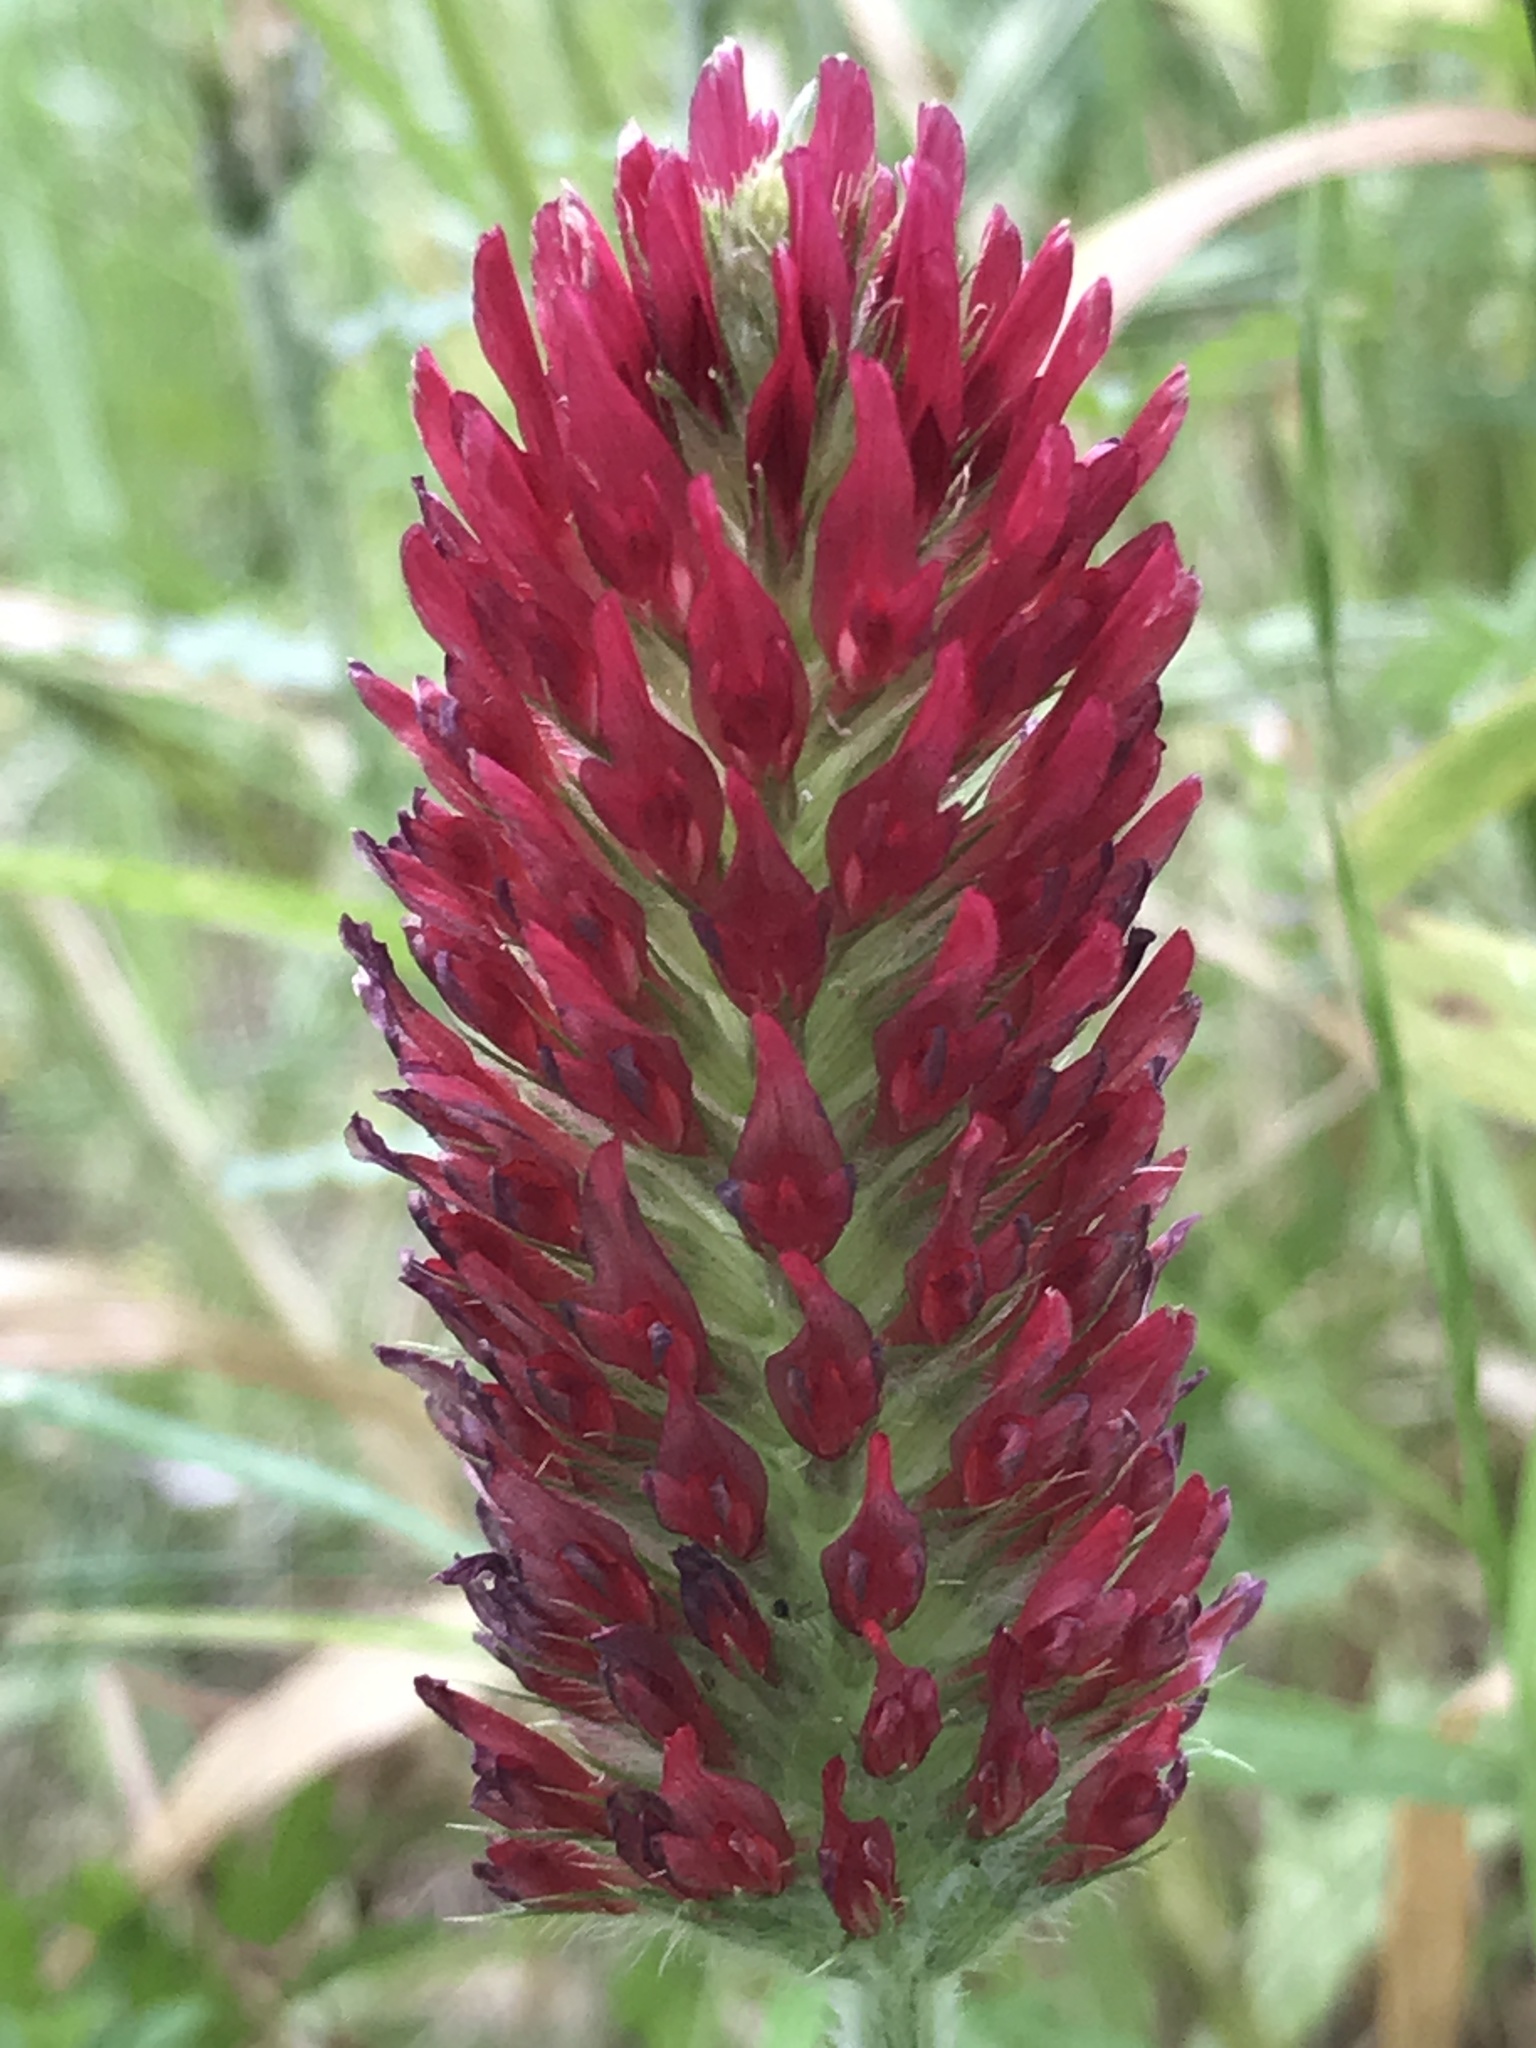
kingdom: Plantae
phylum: Tracheophyta
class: Magnoliopsida
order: Fabales
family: Fabaceae
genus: Trifolium
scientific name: Trifolium incarnatum
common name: Crimson clover
